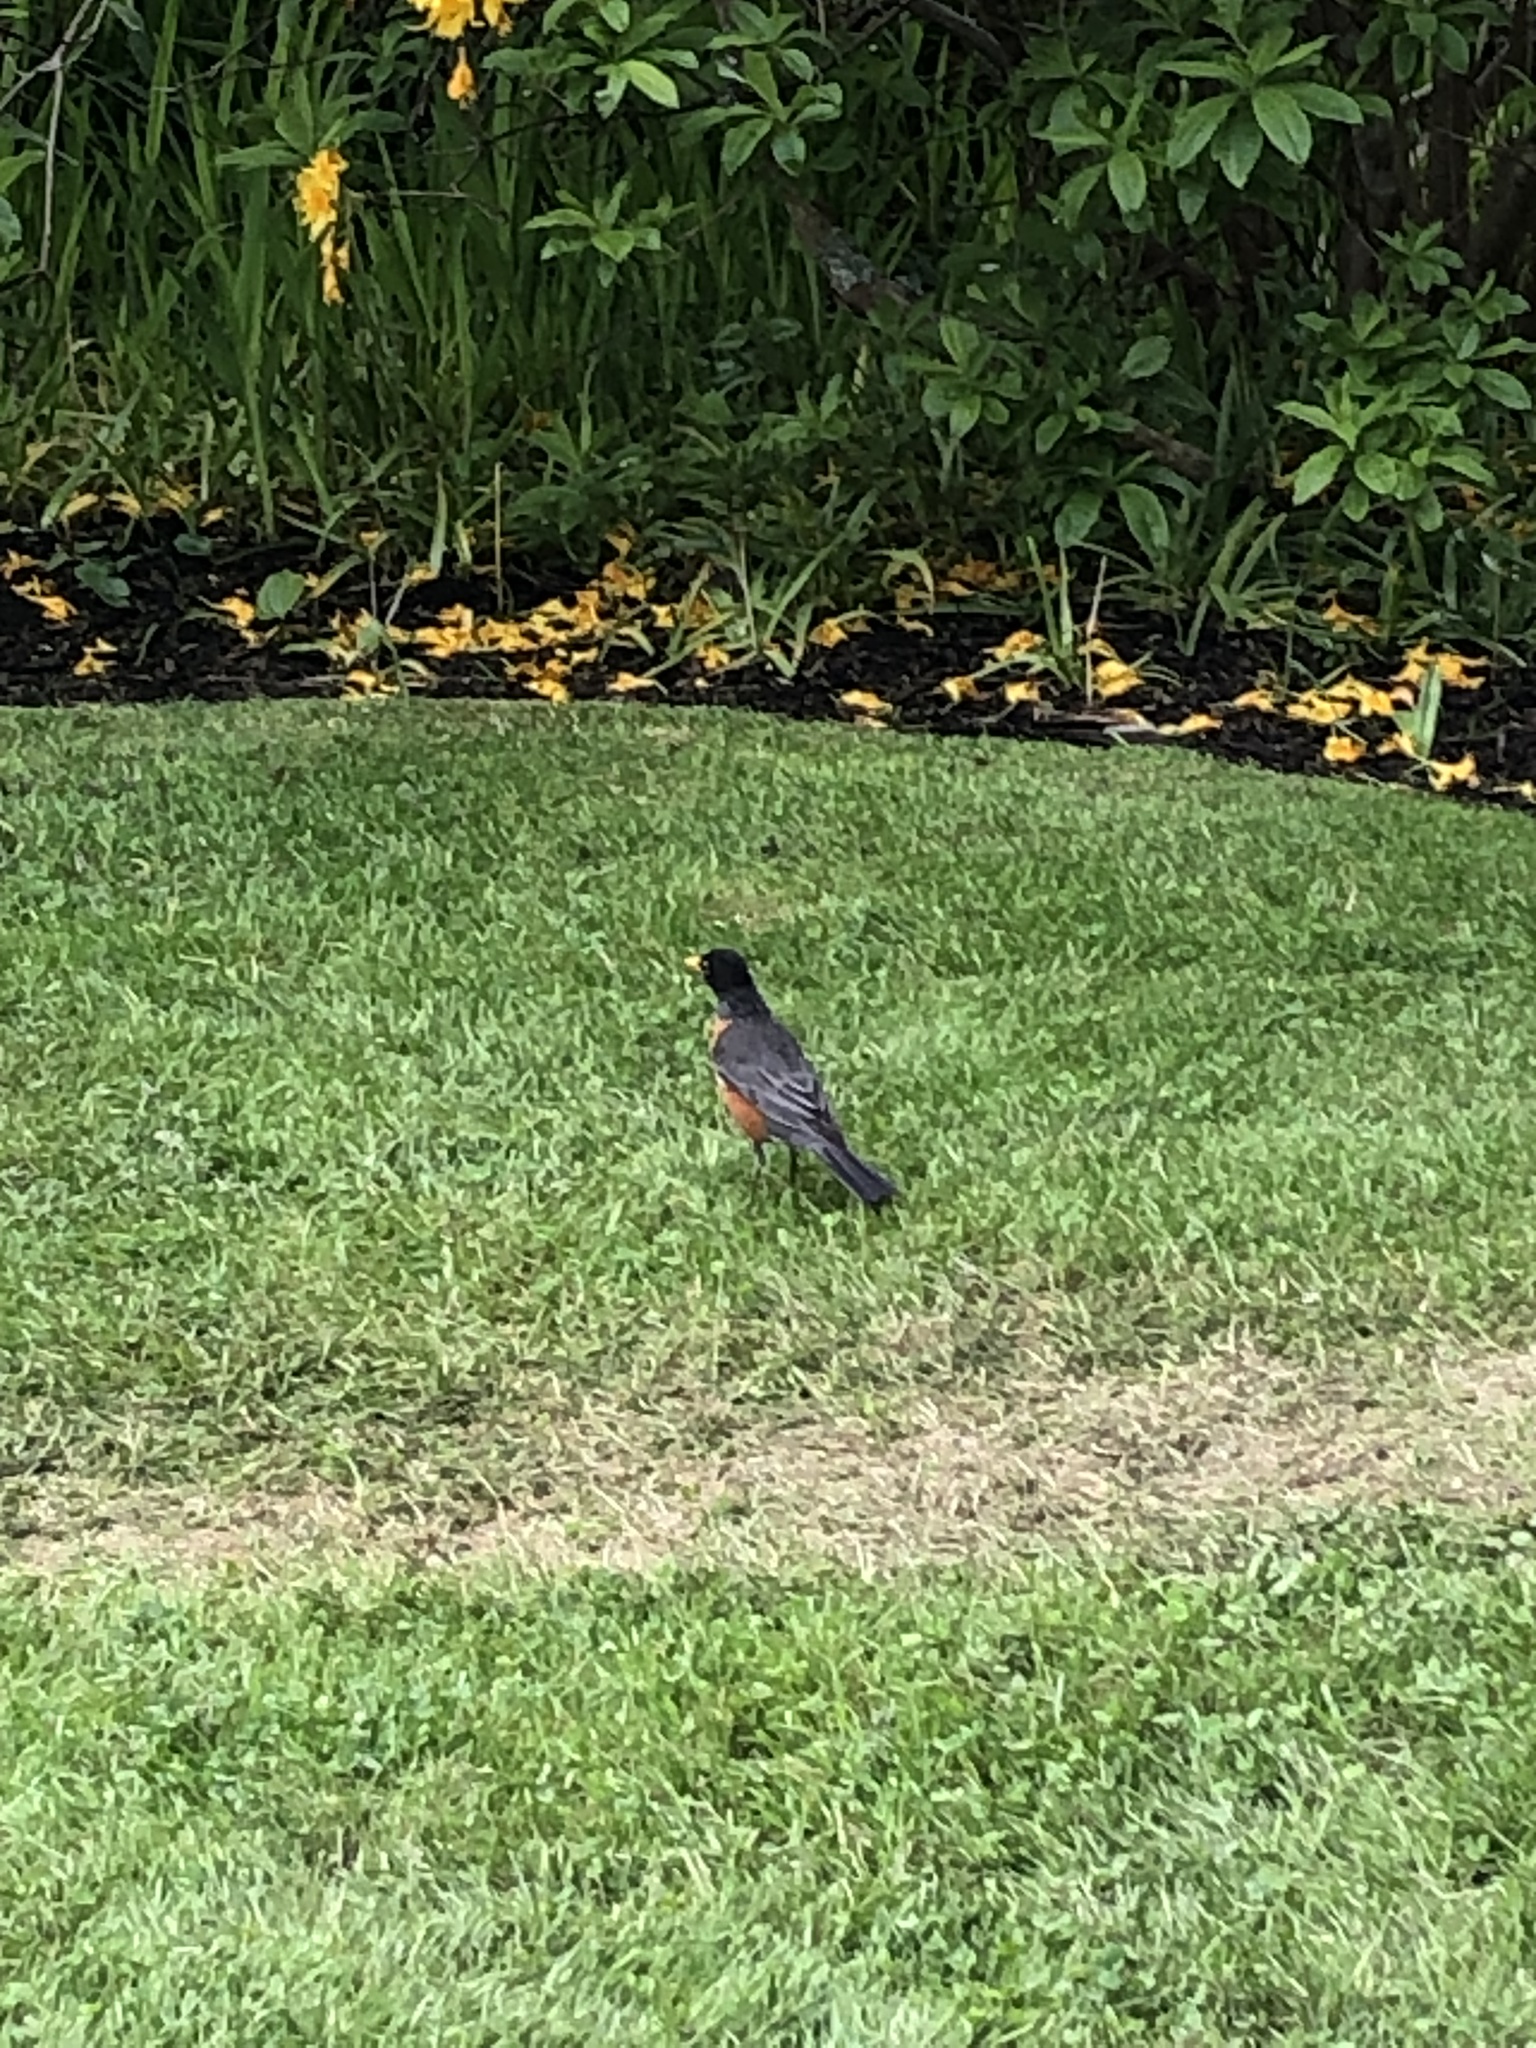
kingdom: Animalia
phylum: Chordata
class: Aves
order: Passeriformes
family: Turdidae
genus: Turdus
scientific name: Turdus migratorius
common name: American robin
